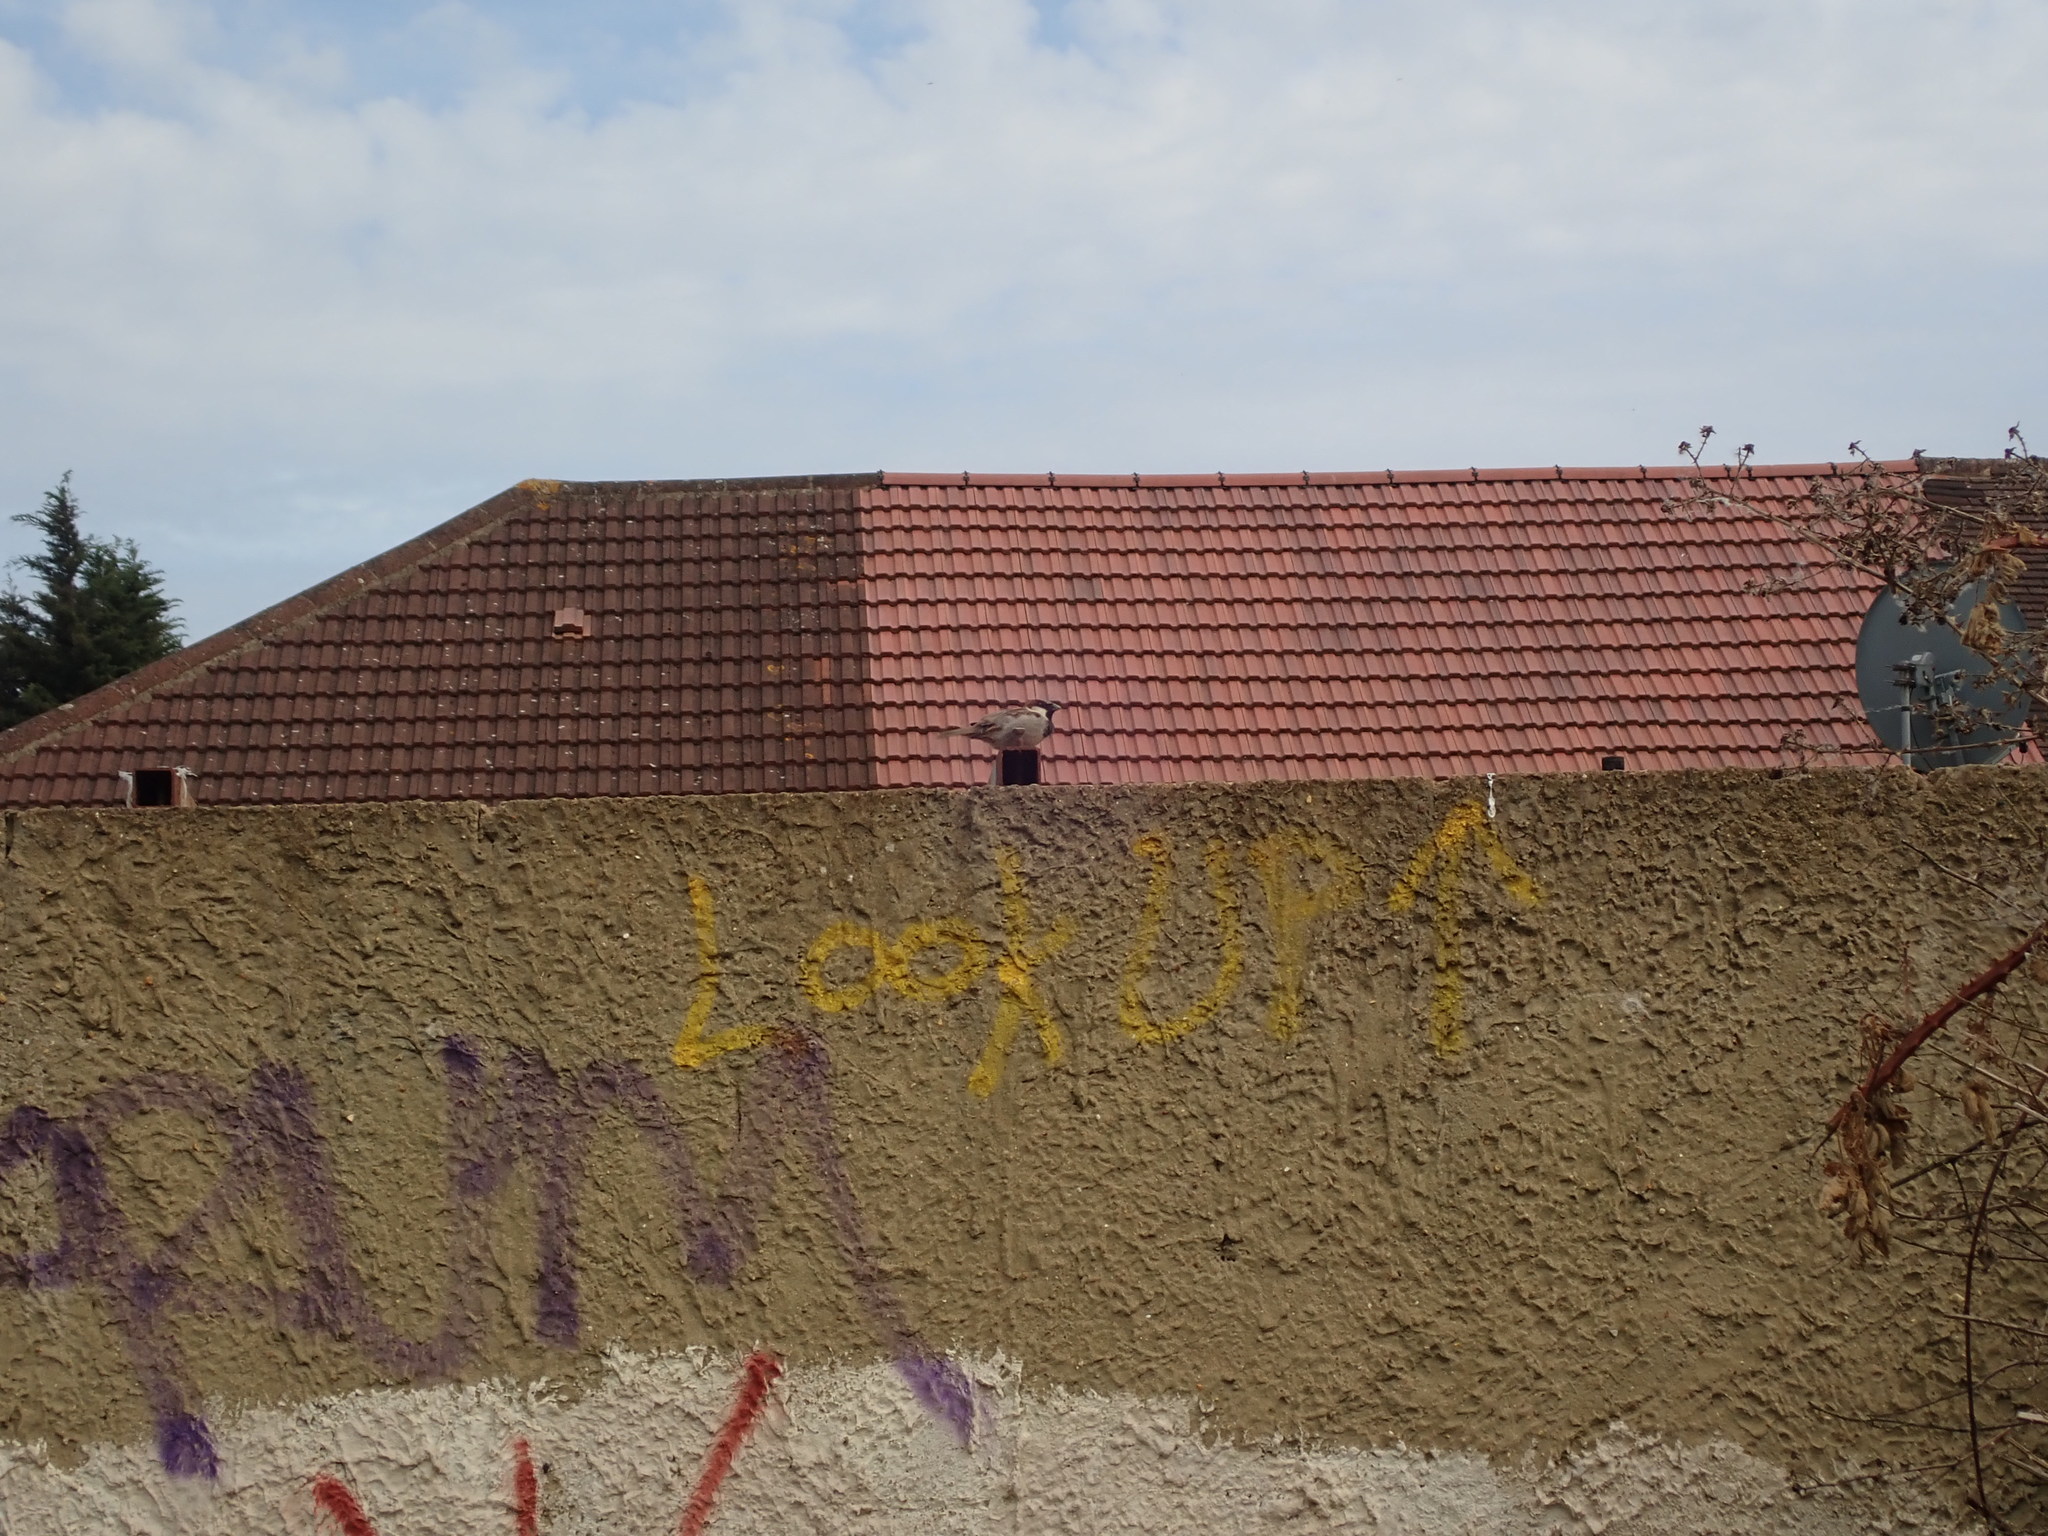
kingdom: Animalia
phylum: Chordata
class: Aves
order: Passeriformes
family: Passeridae
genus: Passer
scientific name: Passer domesticus
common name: House sparrow
